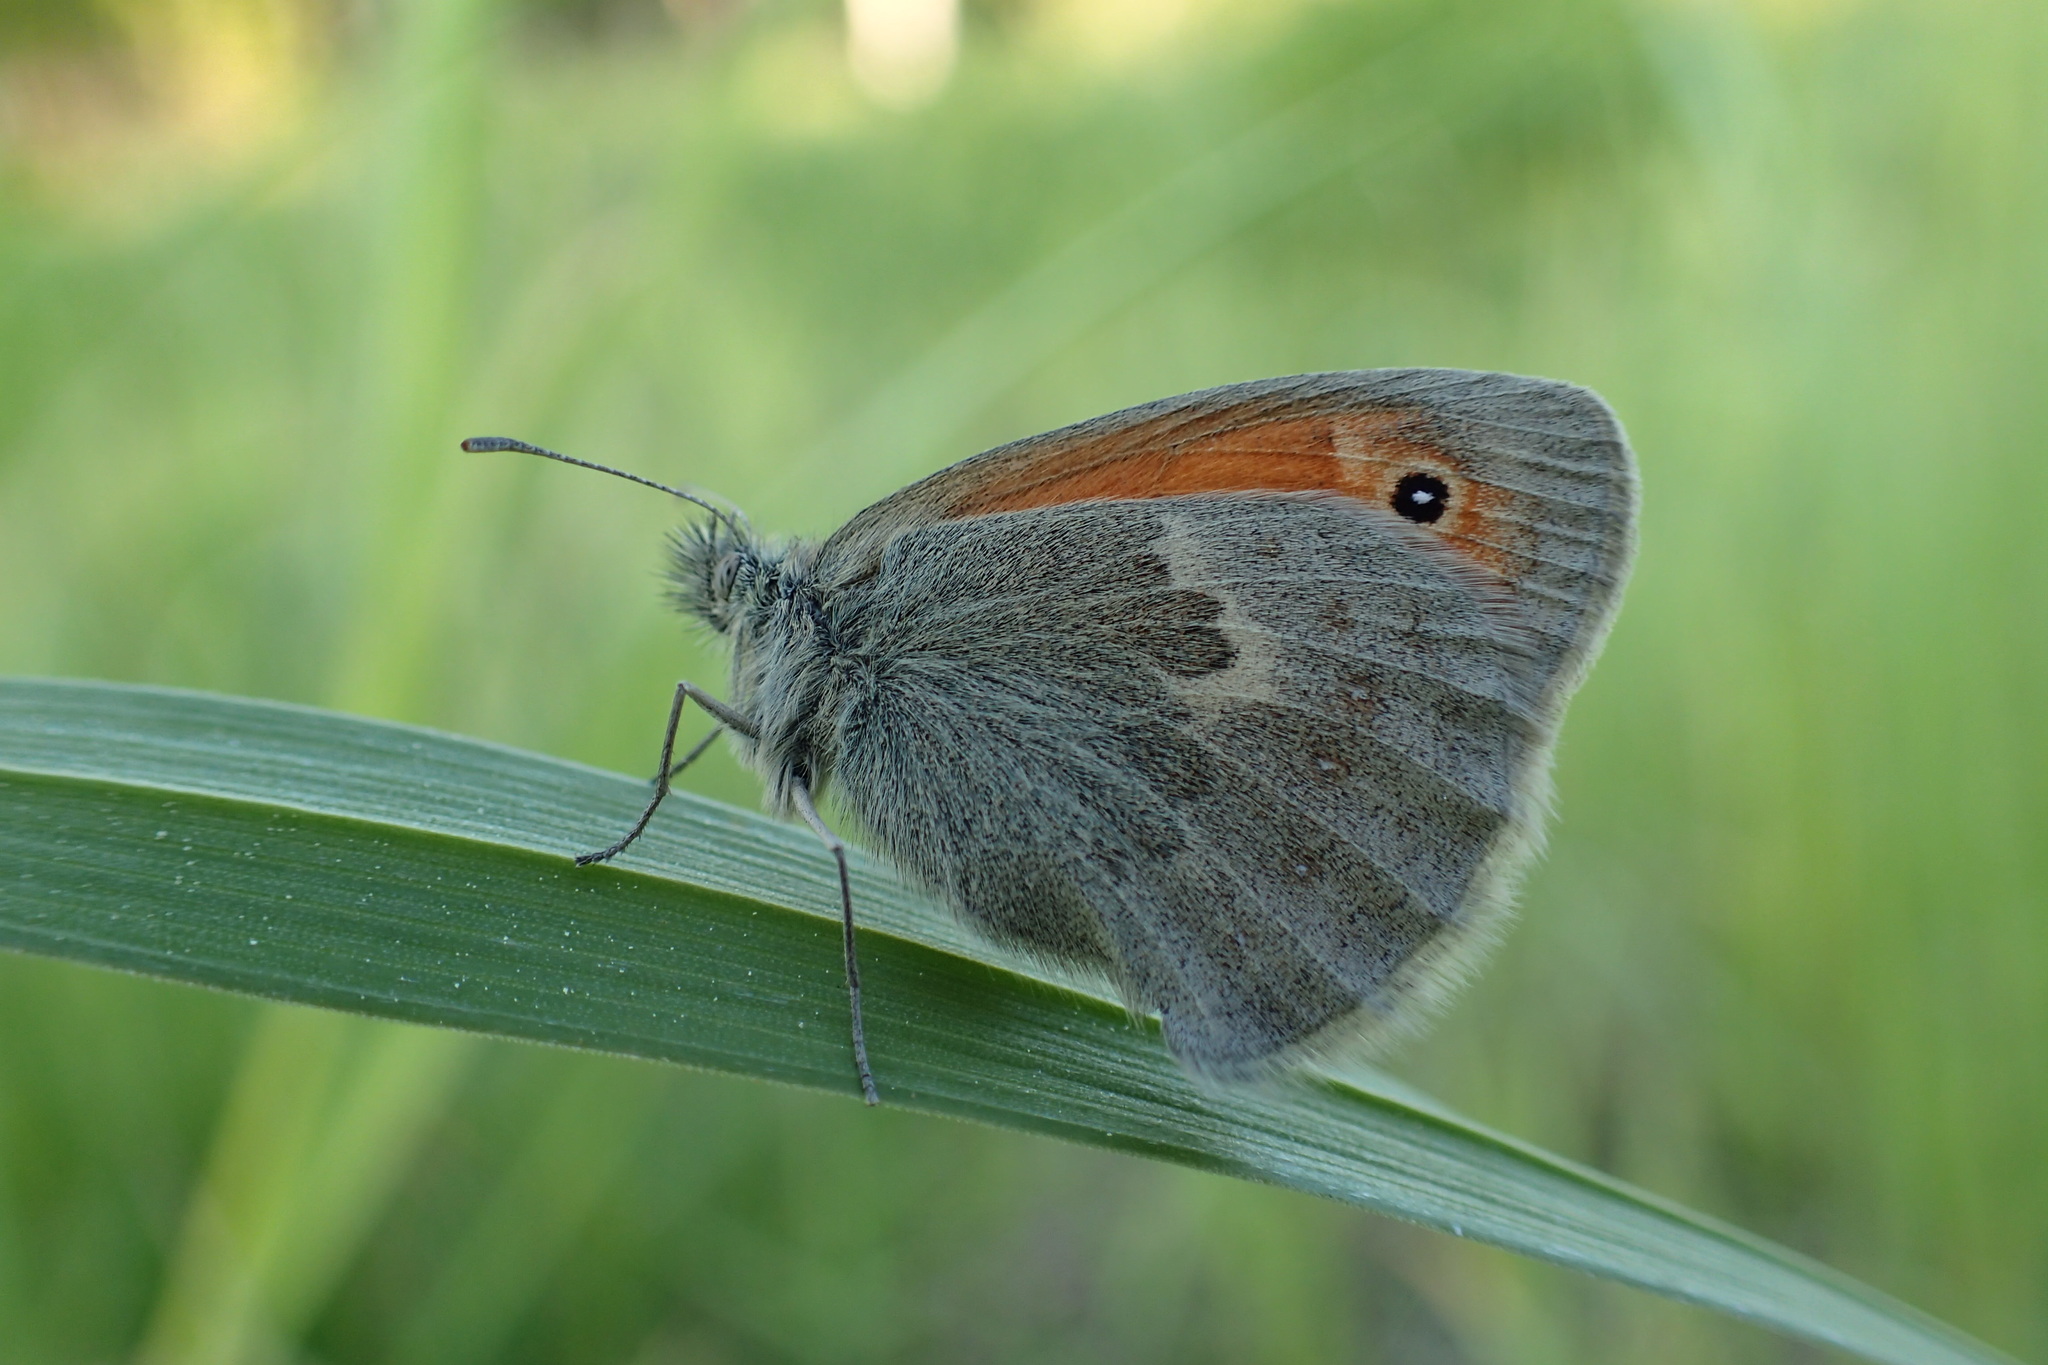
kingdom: Animalia
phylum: Arthropoda
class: Insecta
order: Lepidoptera
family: Nymphalidae
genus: Coenonympha
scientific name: Coenonympha pamphilus
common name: Small heath
